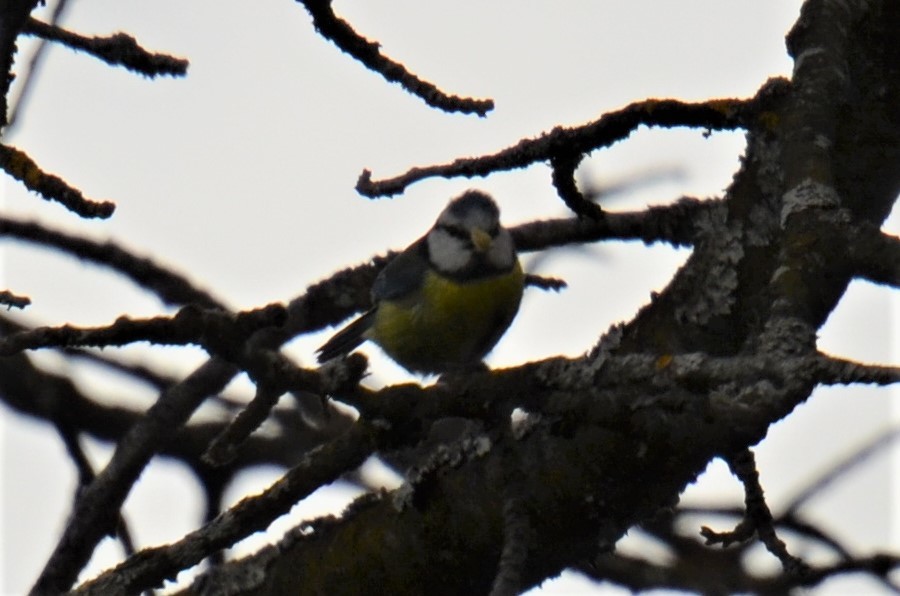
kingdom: Animalia
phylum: Chordata
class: Aves
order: Passeriformes
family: Paridae
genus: Cyanistes
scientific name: Cyanistes caeruleus
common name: Eurasian blue tit
